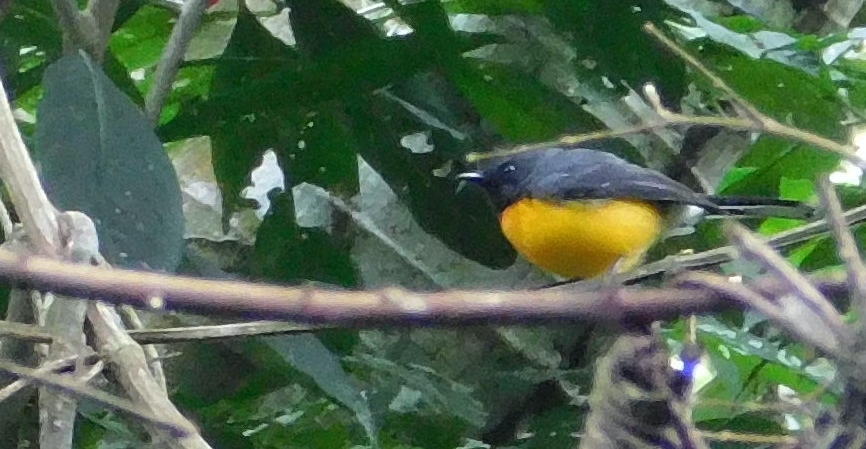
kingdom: Animalia
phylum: Chordata
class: Aves
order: Passeriformes
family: Parulidae
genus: Myioborus
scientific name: Myioborus miniatus
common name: Slate-throated redstart
